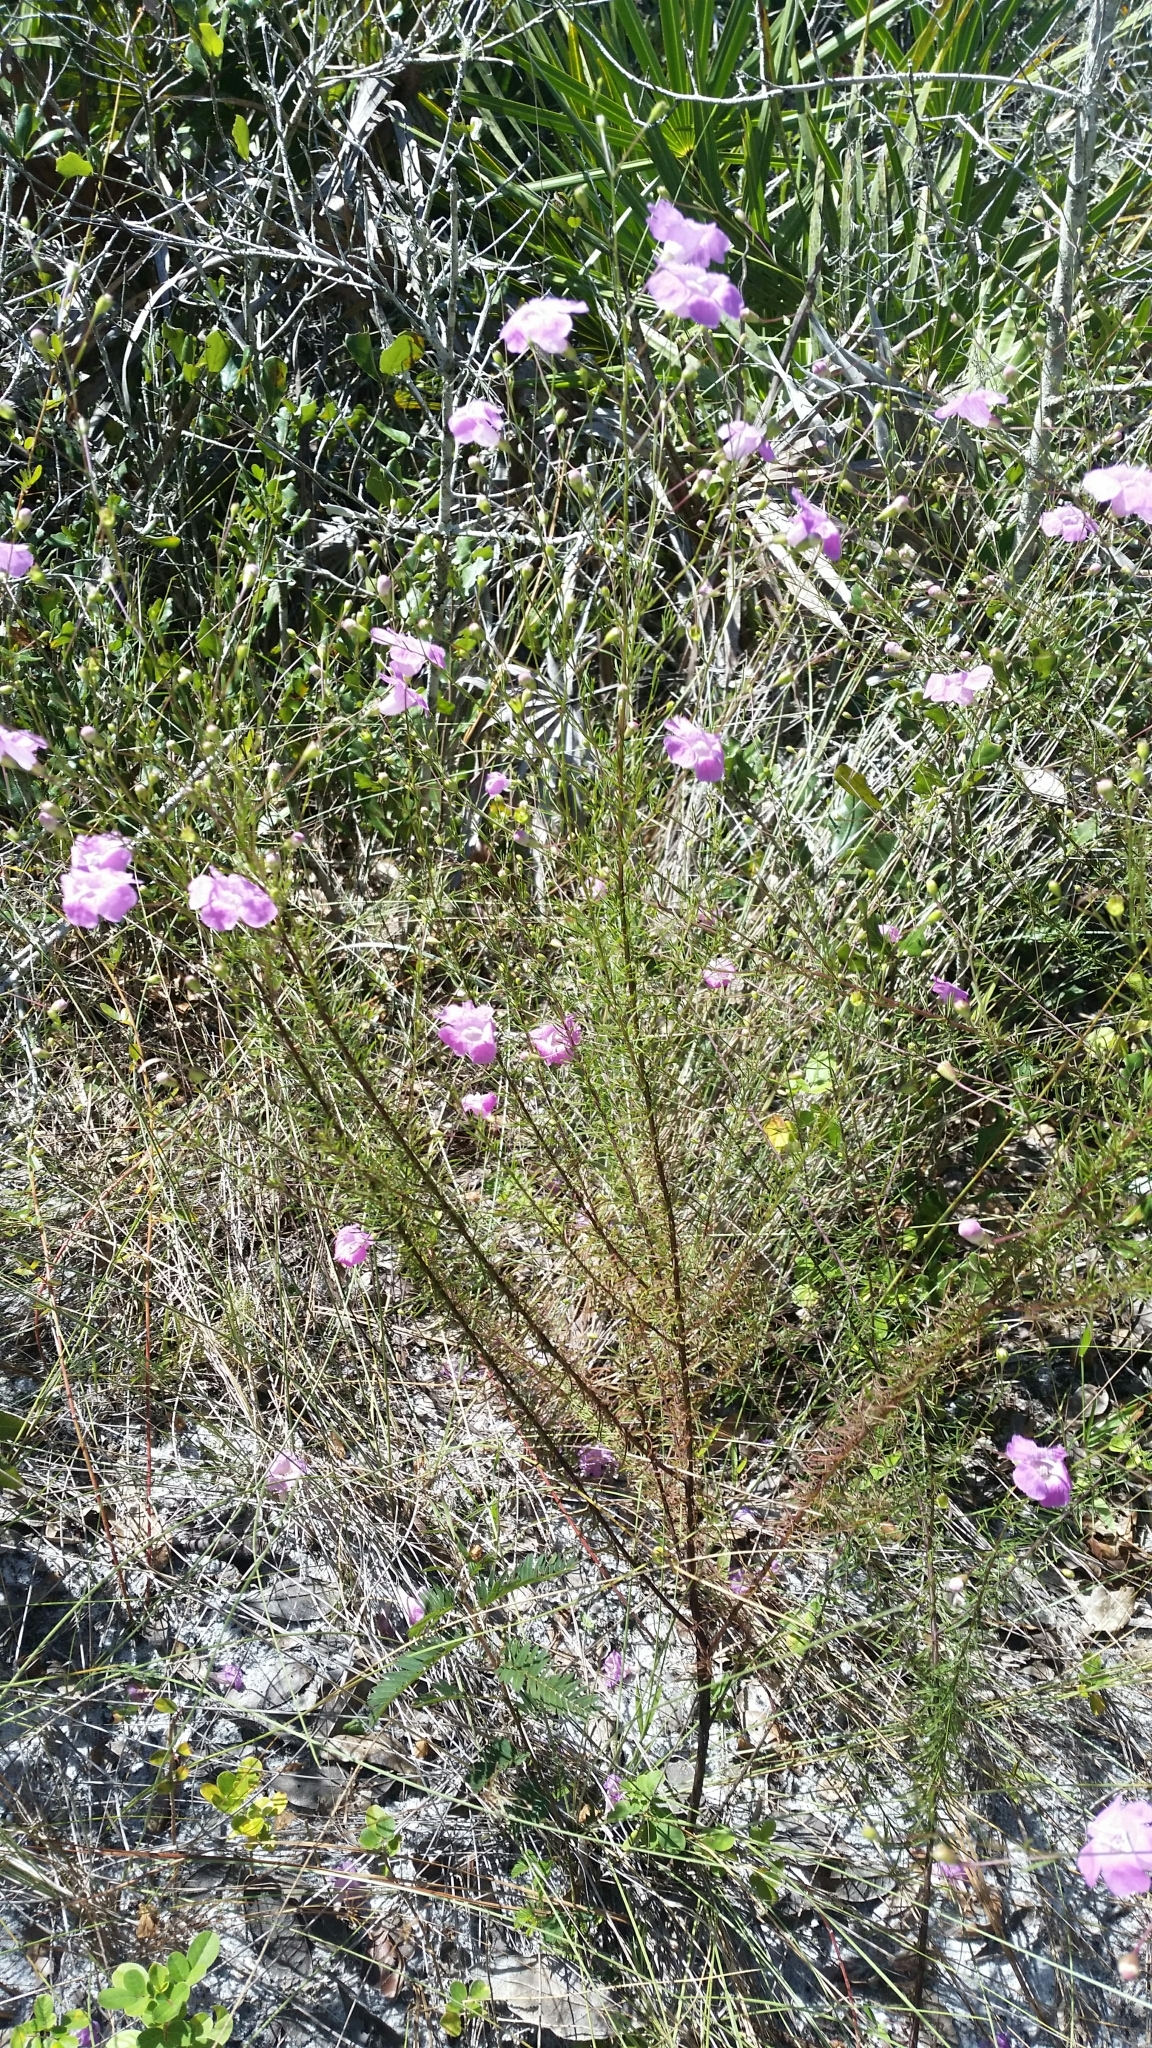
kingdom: Plantae
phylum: Tracheophyta
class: Magnoliopsida
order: Lamiales
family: Orobanchaceae
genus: Agalinis
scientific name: Agalinis filifolia
